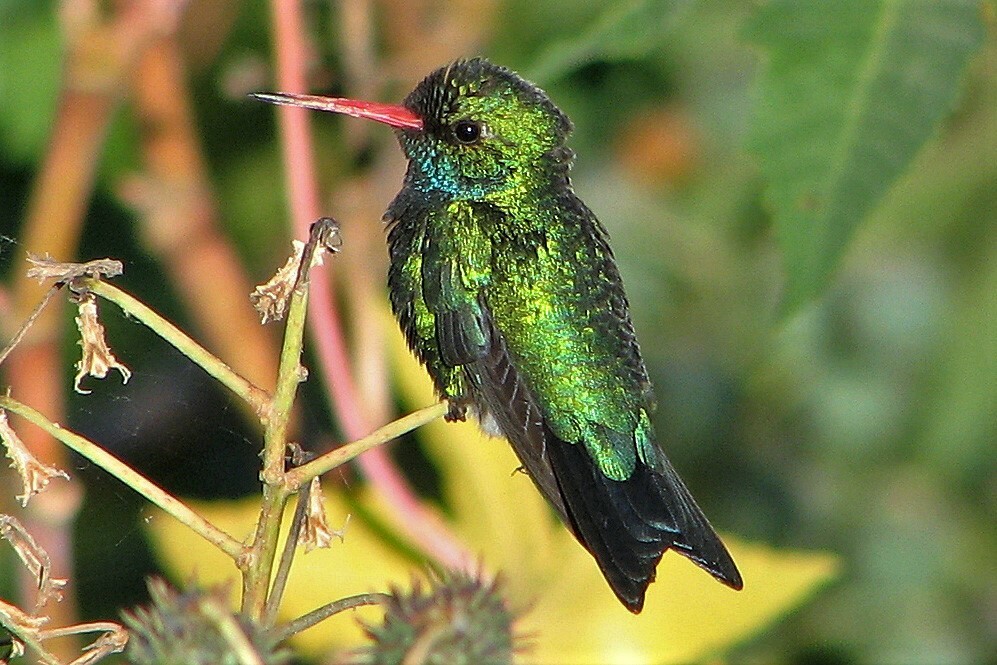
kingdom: Animalia
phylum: Chordata
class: Aves
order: Apodiformes
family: Trochilidae
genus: Chlorostilbon
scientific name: Chlorostilbon lucidus
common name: Glittering-bellied emerald
